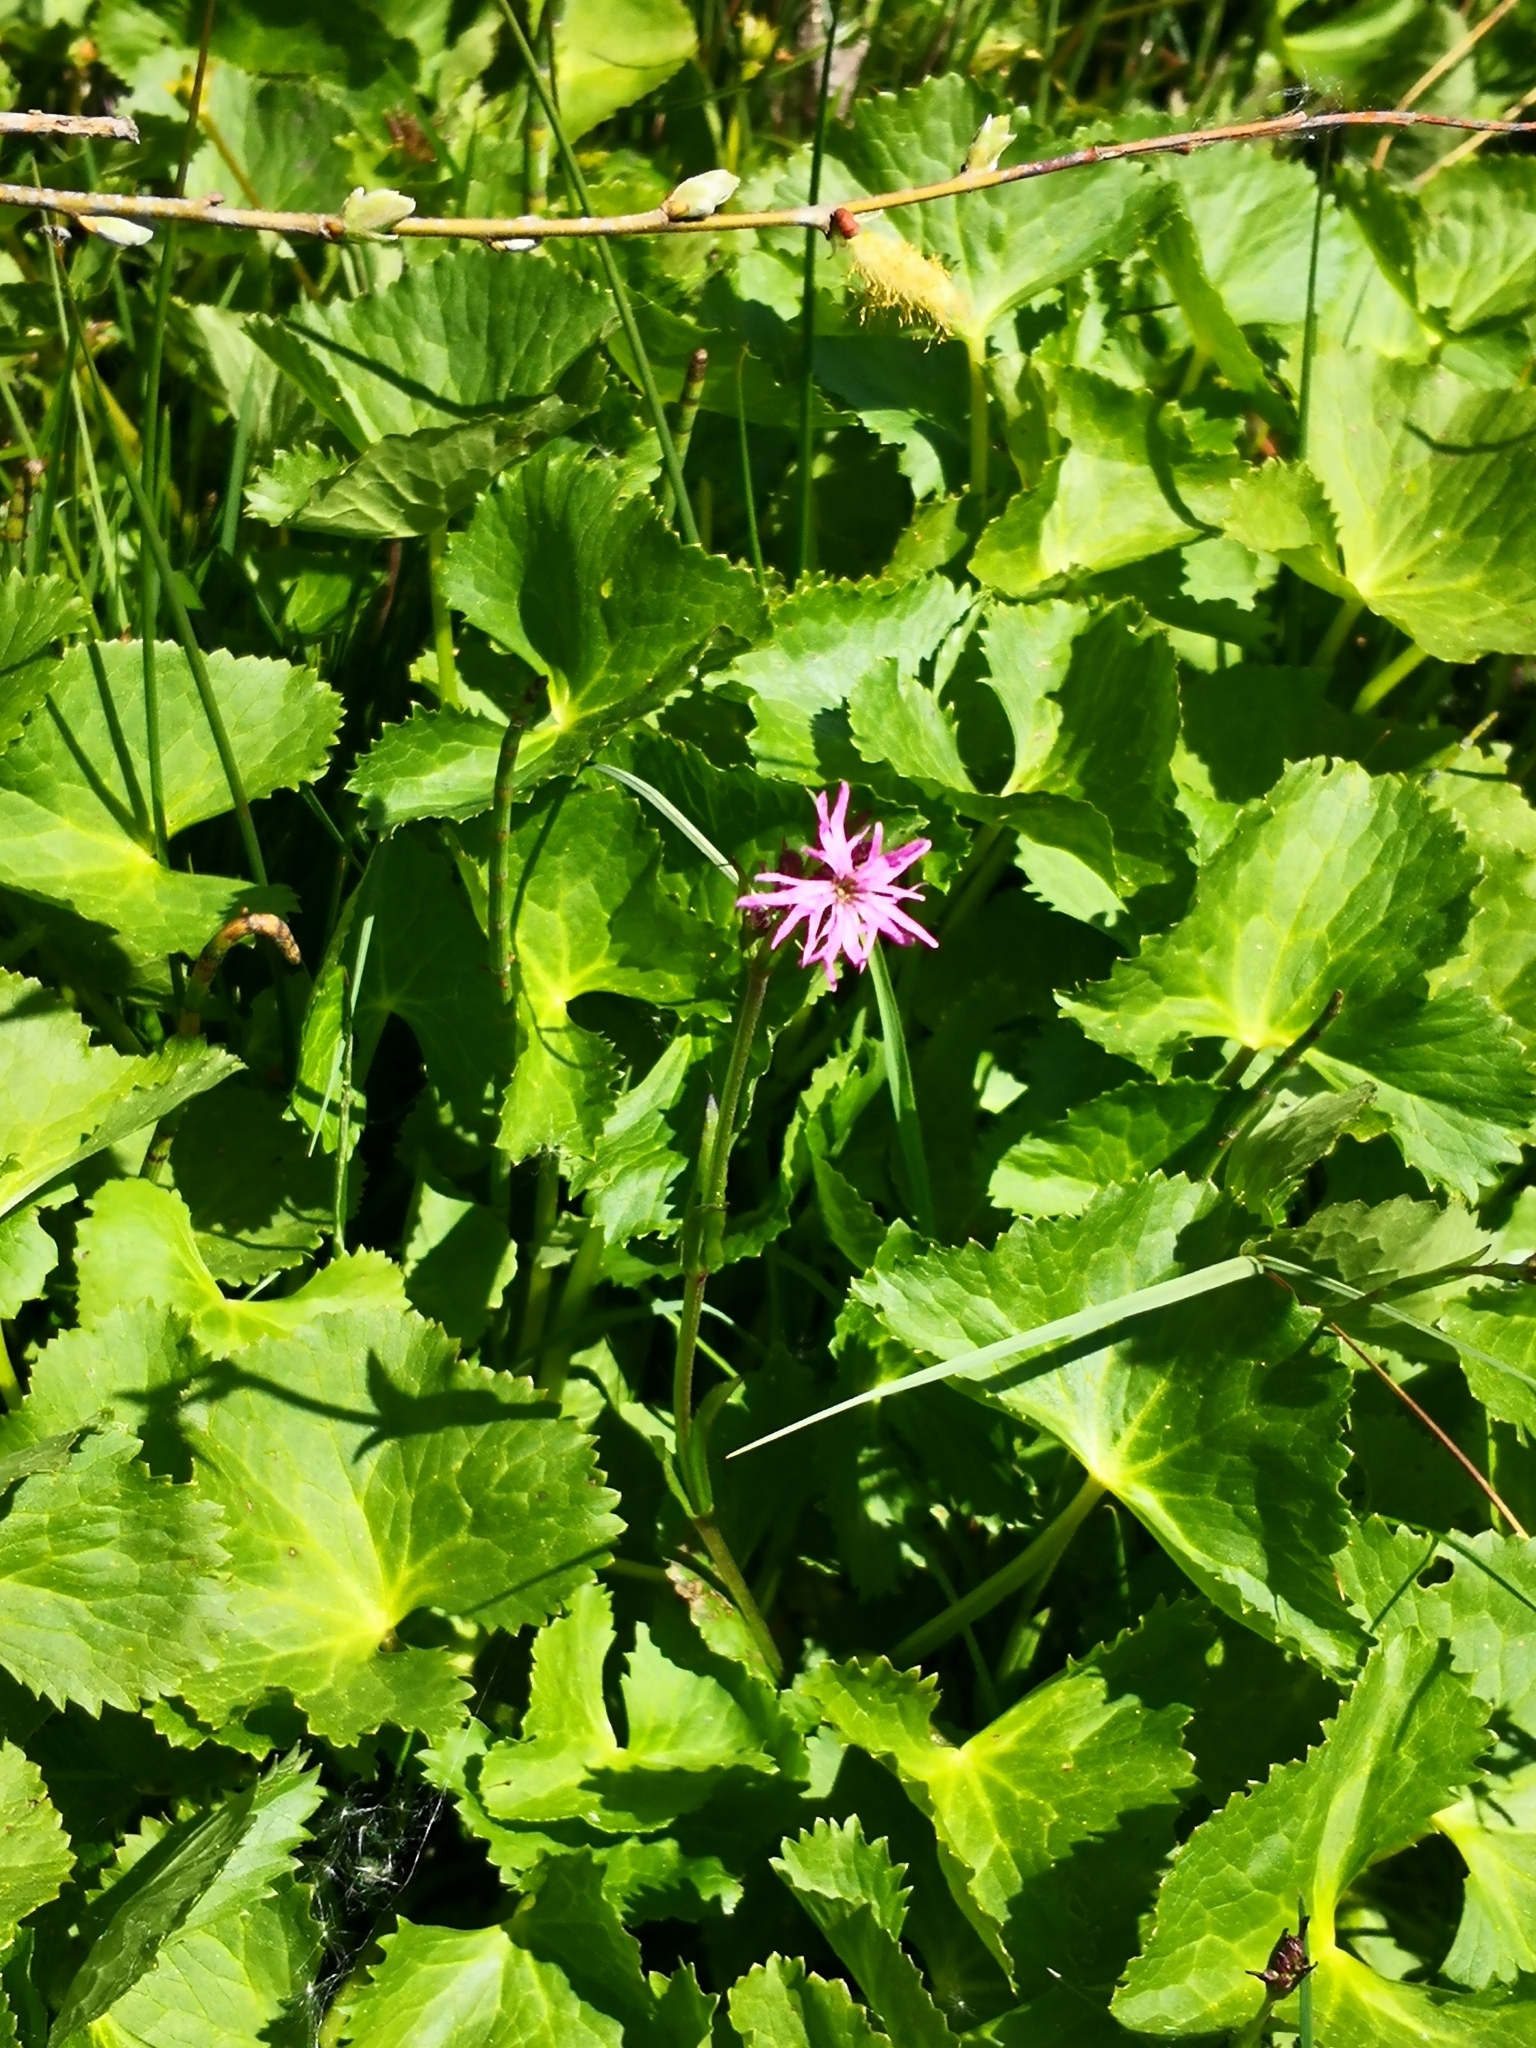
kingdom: Plantae
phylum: Tracheophyta
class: Magnoliopsida
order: Caryophyllales
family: Caryophyllaceae
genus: Silene
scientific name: Silene flos-cuculi
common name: Ragged-robin
